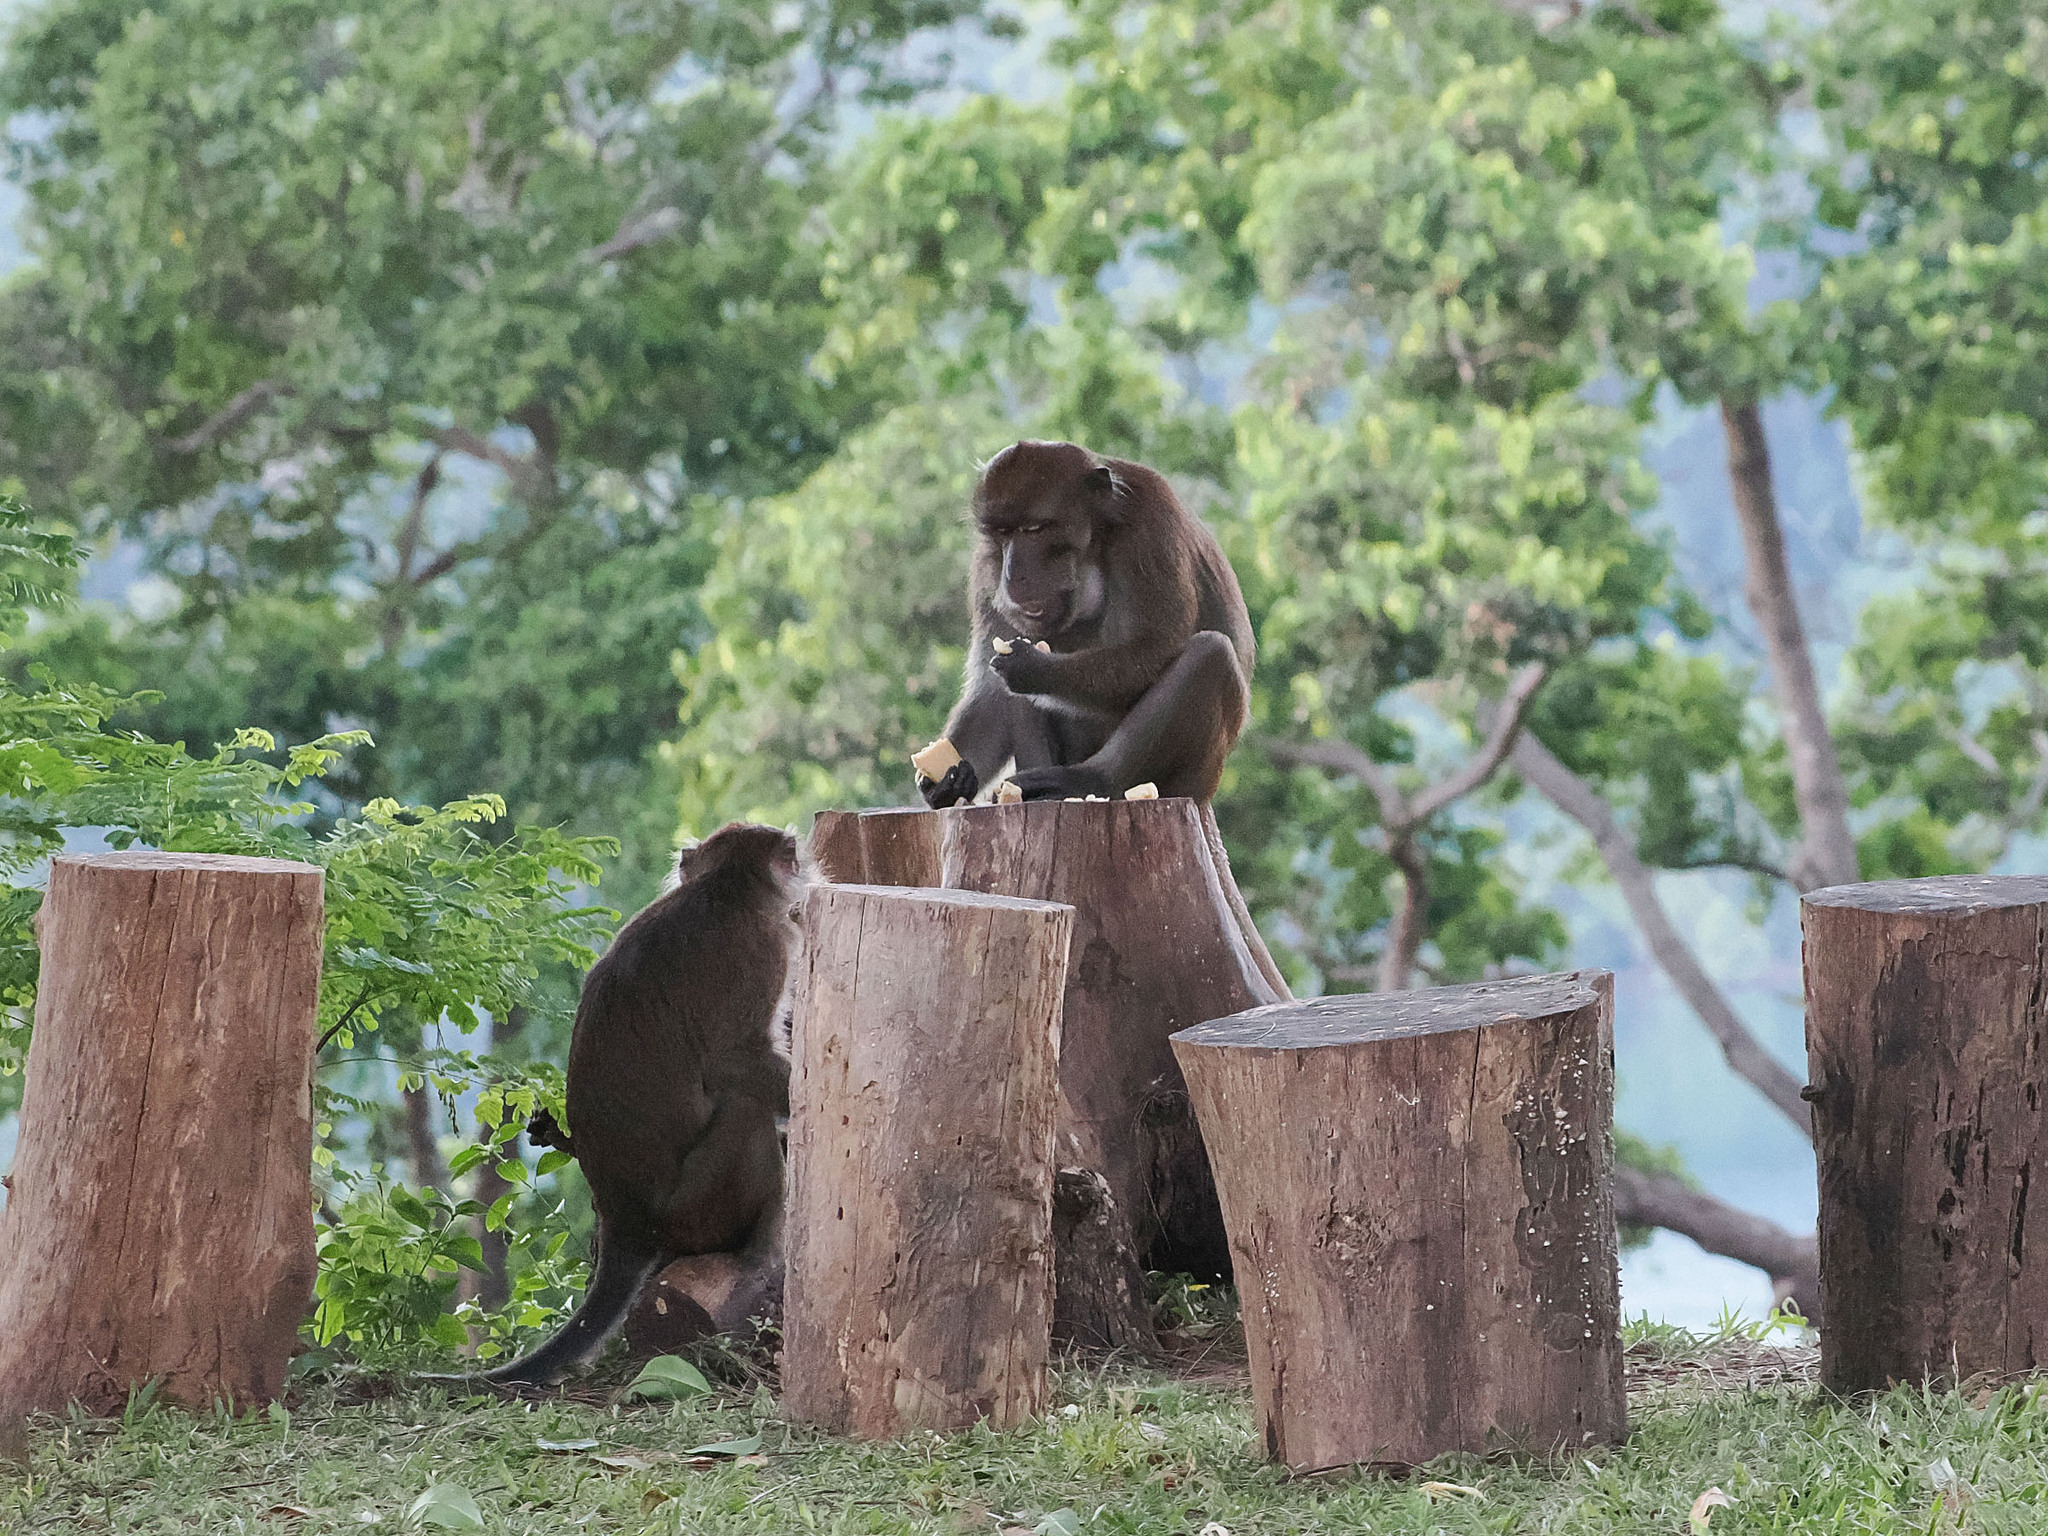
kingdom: Animalia
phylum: Chordata
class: Mammalia
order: Primates
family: Cercopithecidae
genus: Macaca
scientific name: Macaca fascicularis
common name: Crab-eating macaque
